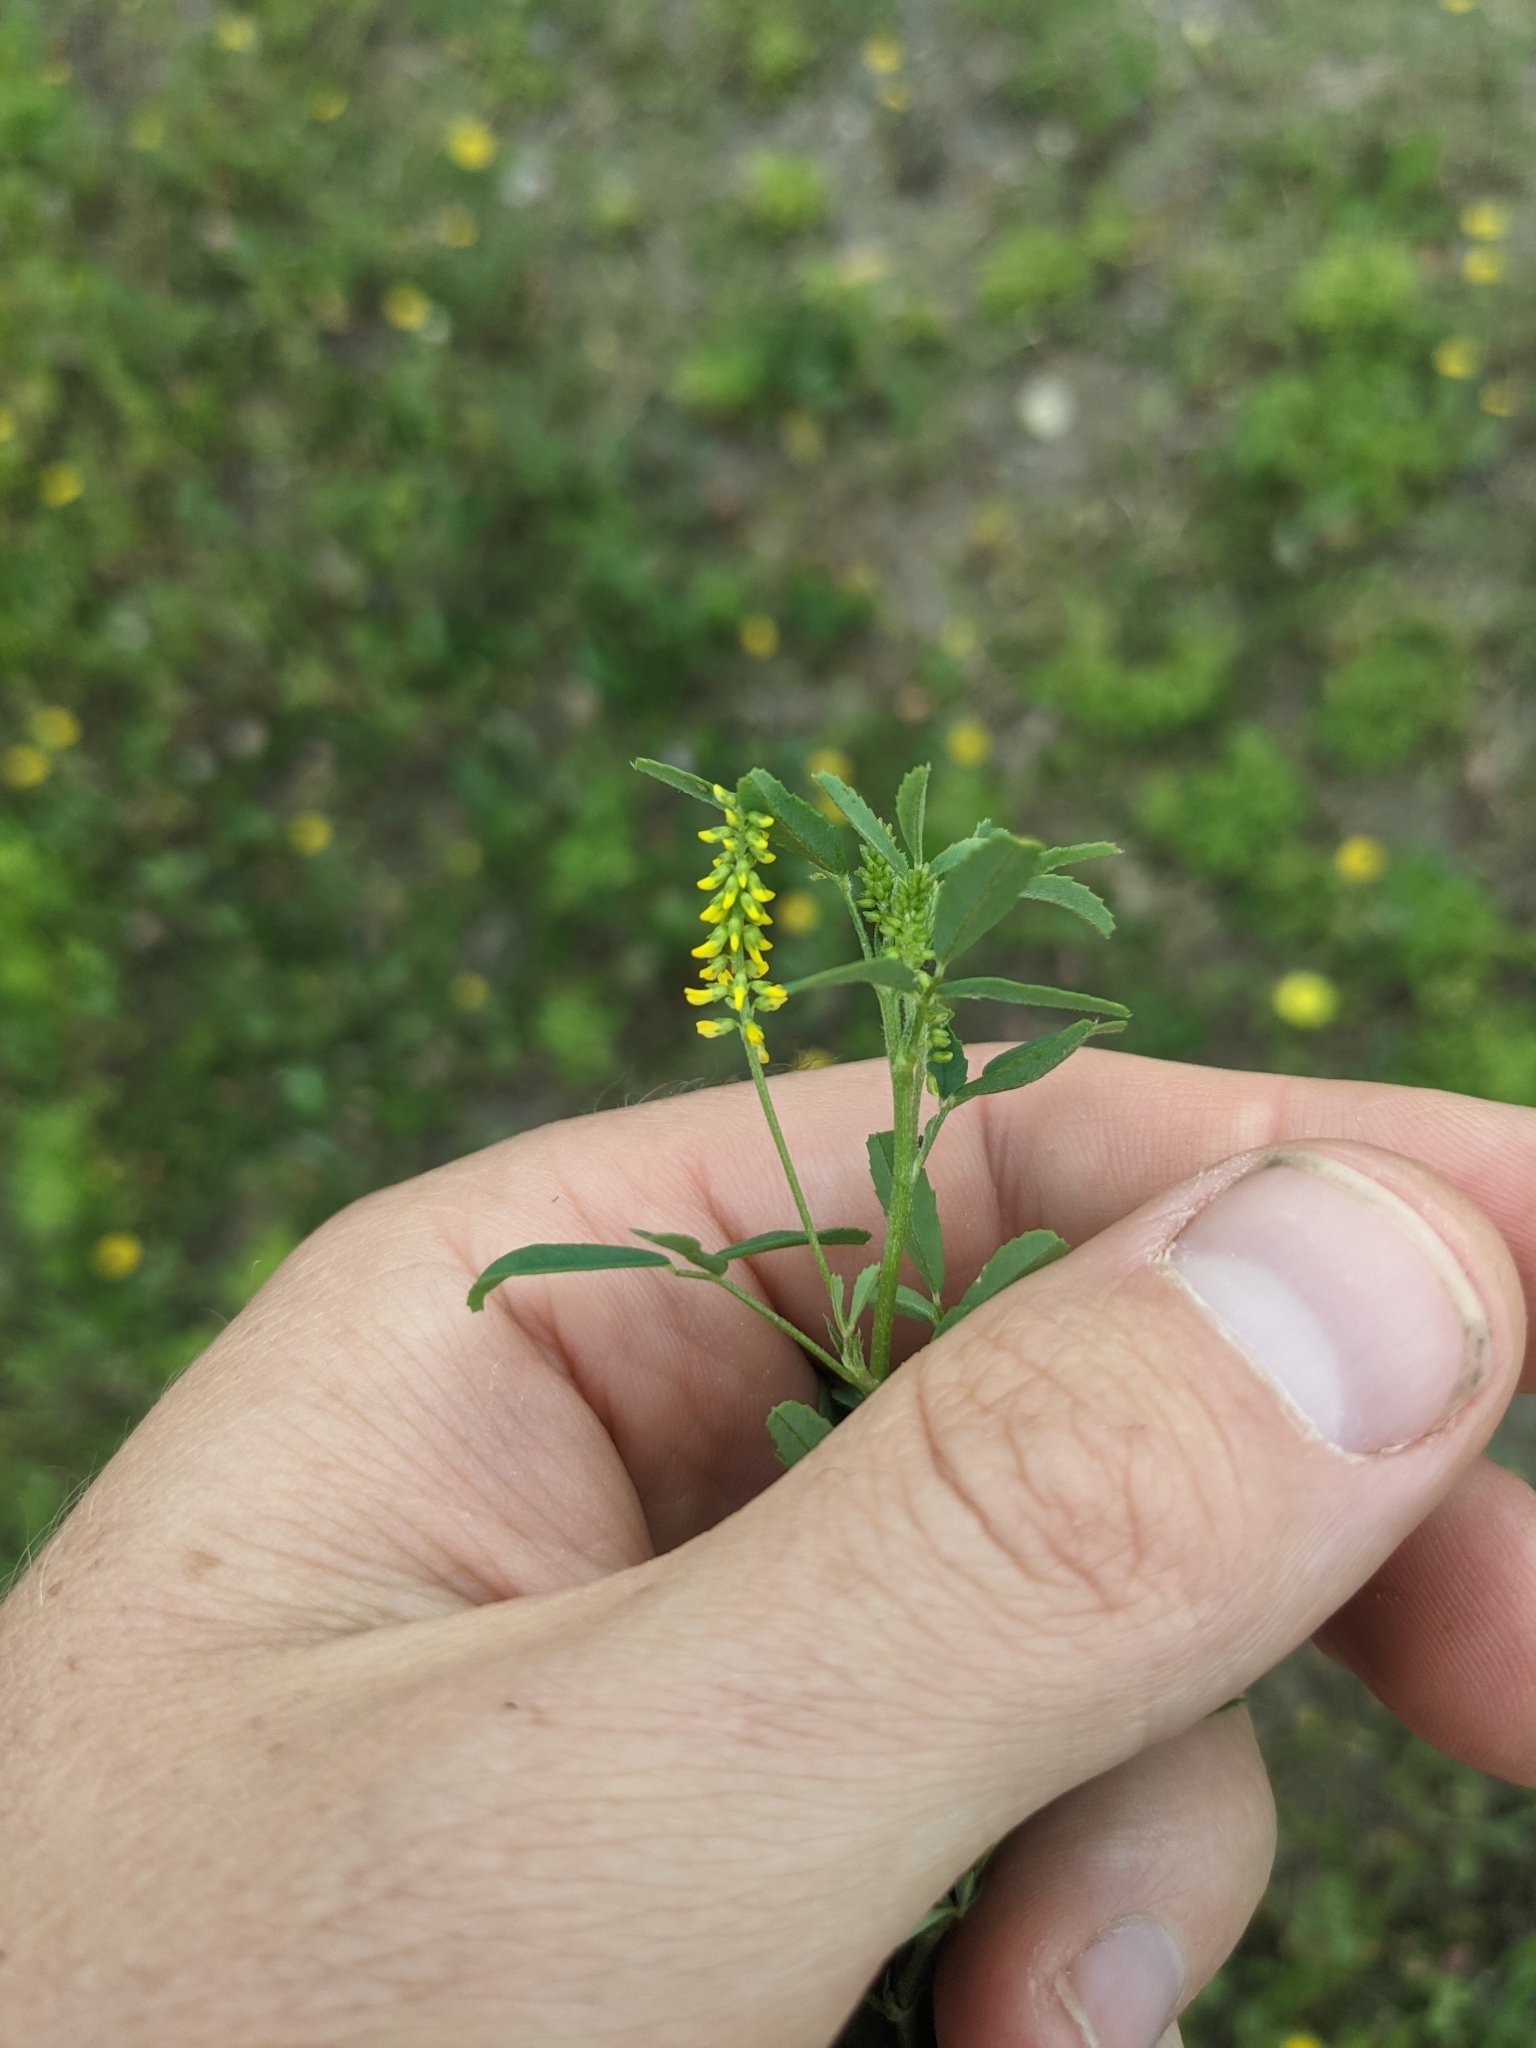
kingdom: Plantae
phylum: Tracheophyta
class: Magnoliopsida
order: Fabales
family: Fabaceae
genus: Melilotus
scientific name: Melilotus indicus
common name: Small melilot
